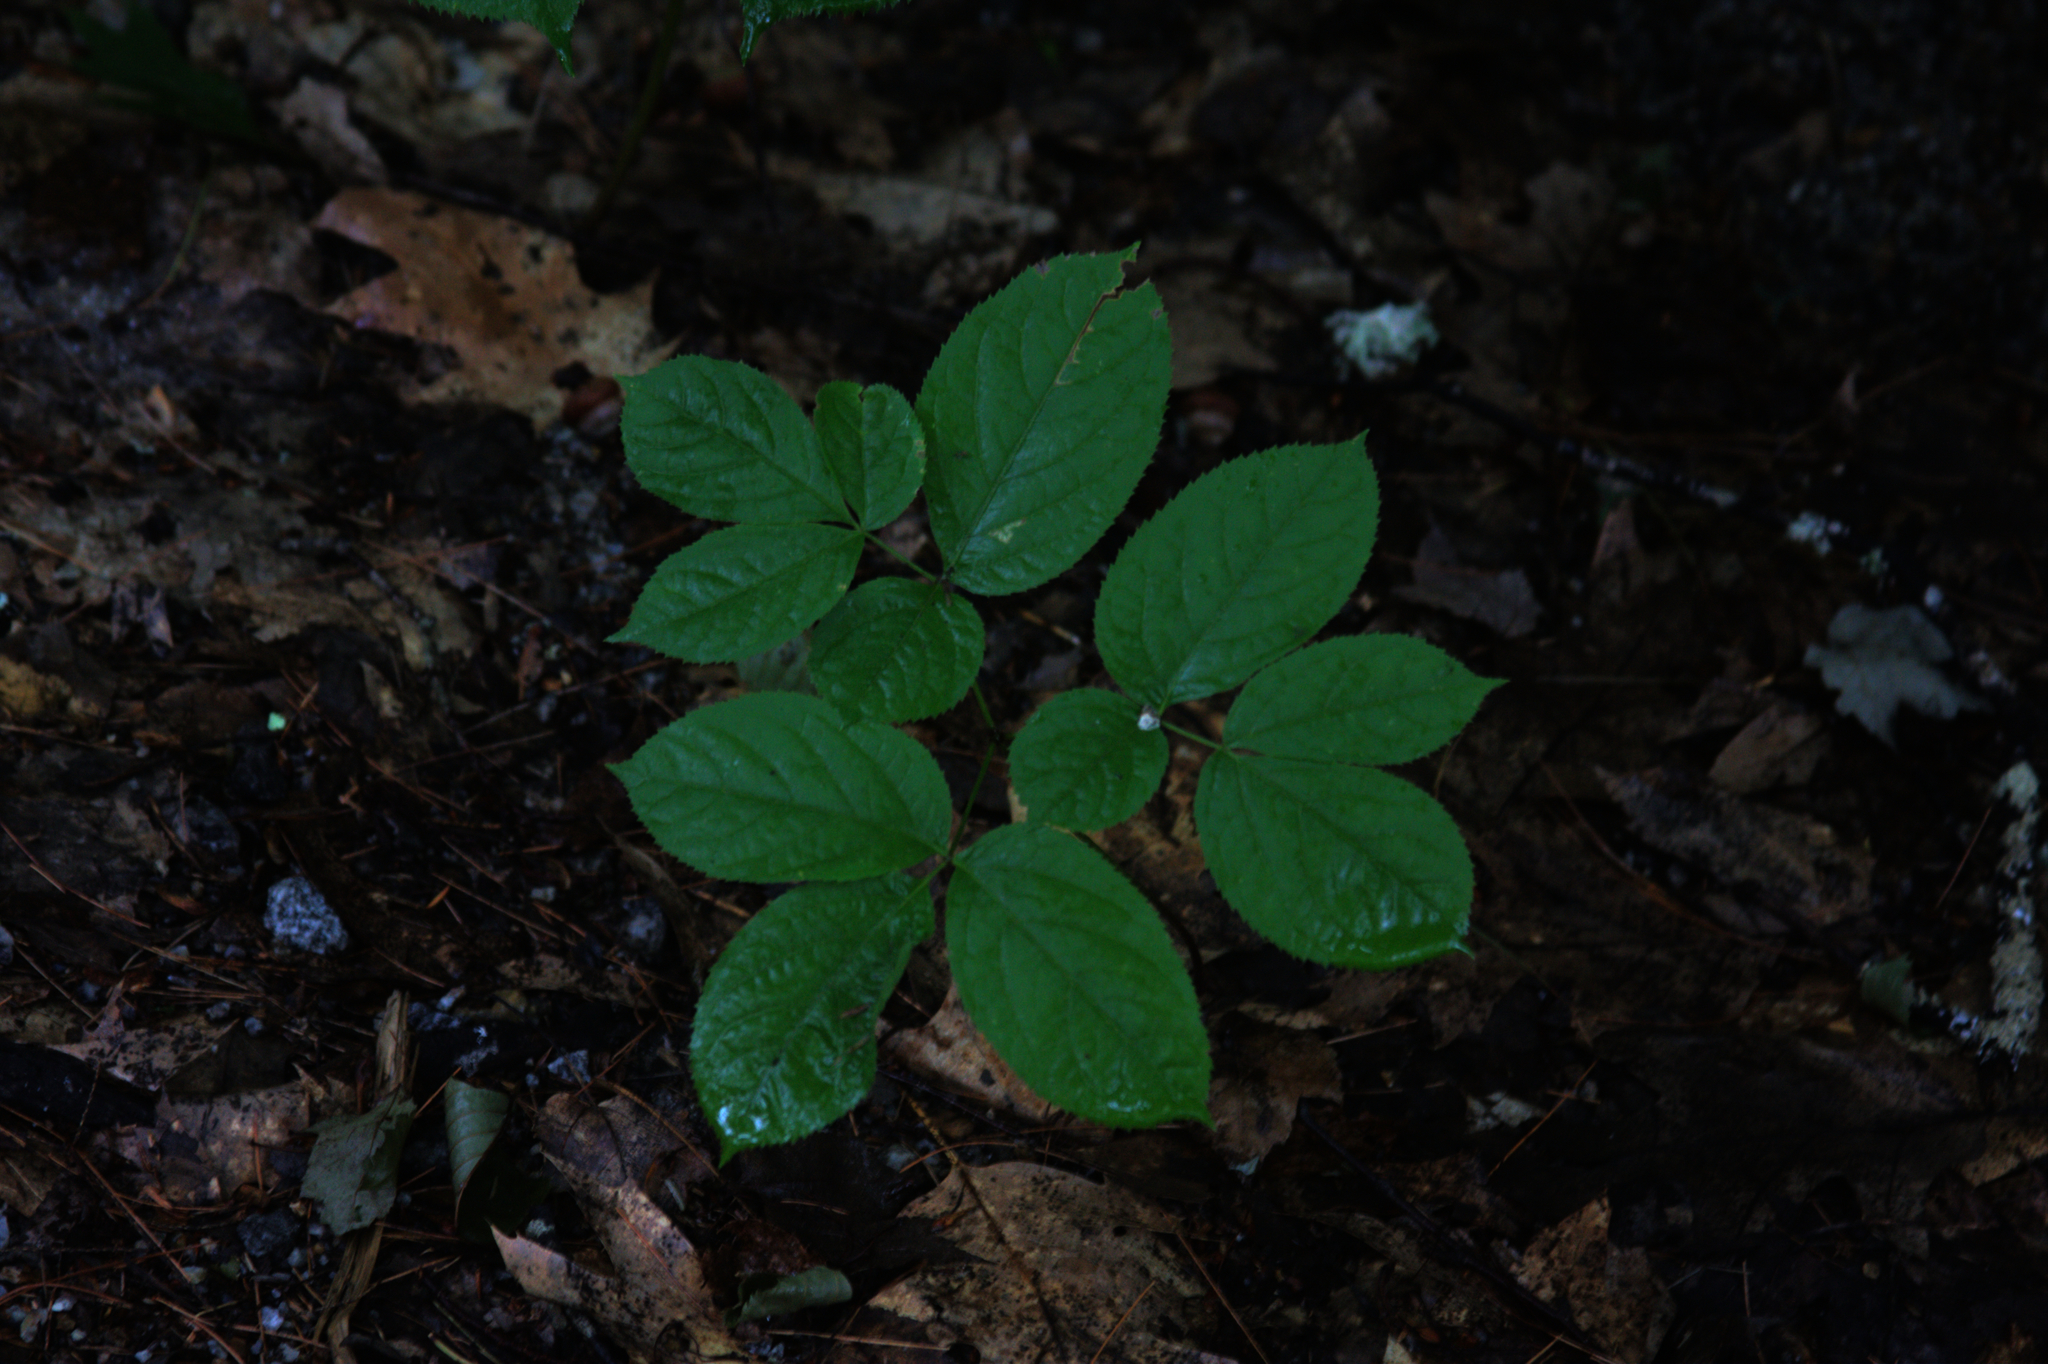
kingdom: Plantae
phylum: Tracheophyta
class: Magnoliopsida
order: Apiales
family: Araliaceae
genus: Aralia
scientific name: Aralia nudicaulis
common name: Wild sarsaparilla
